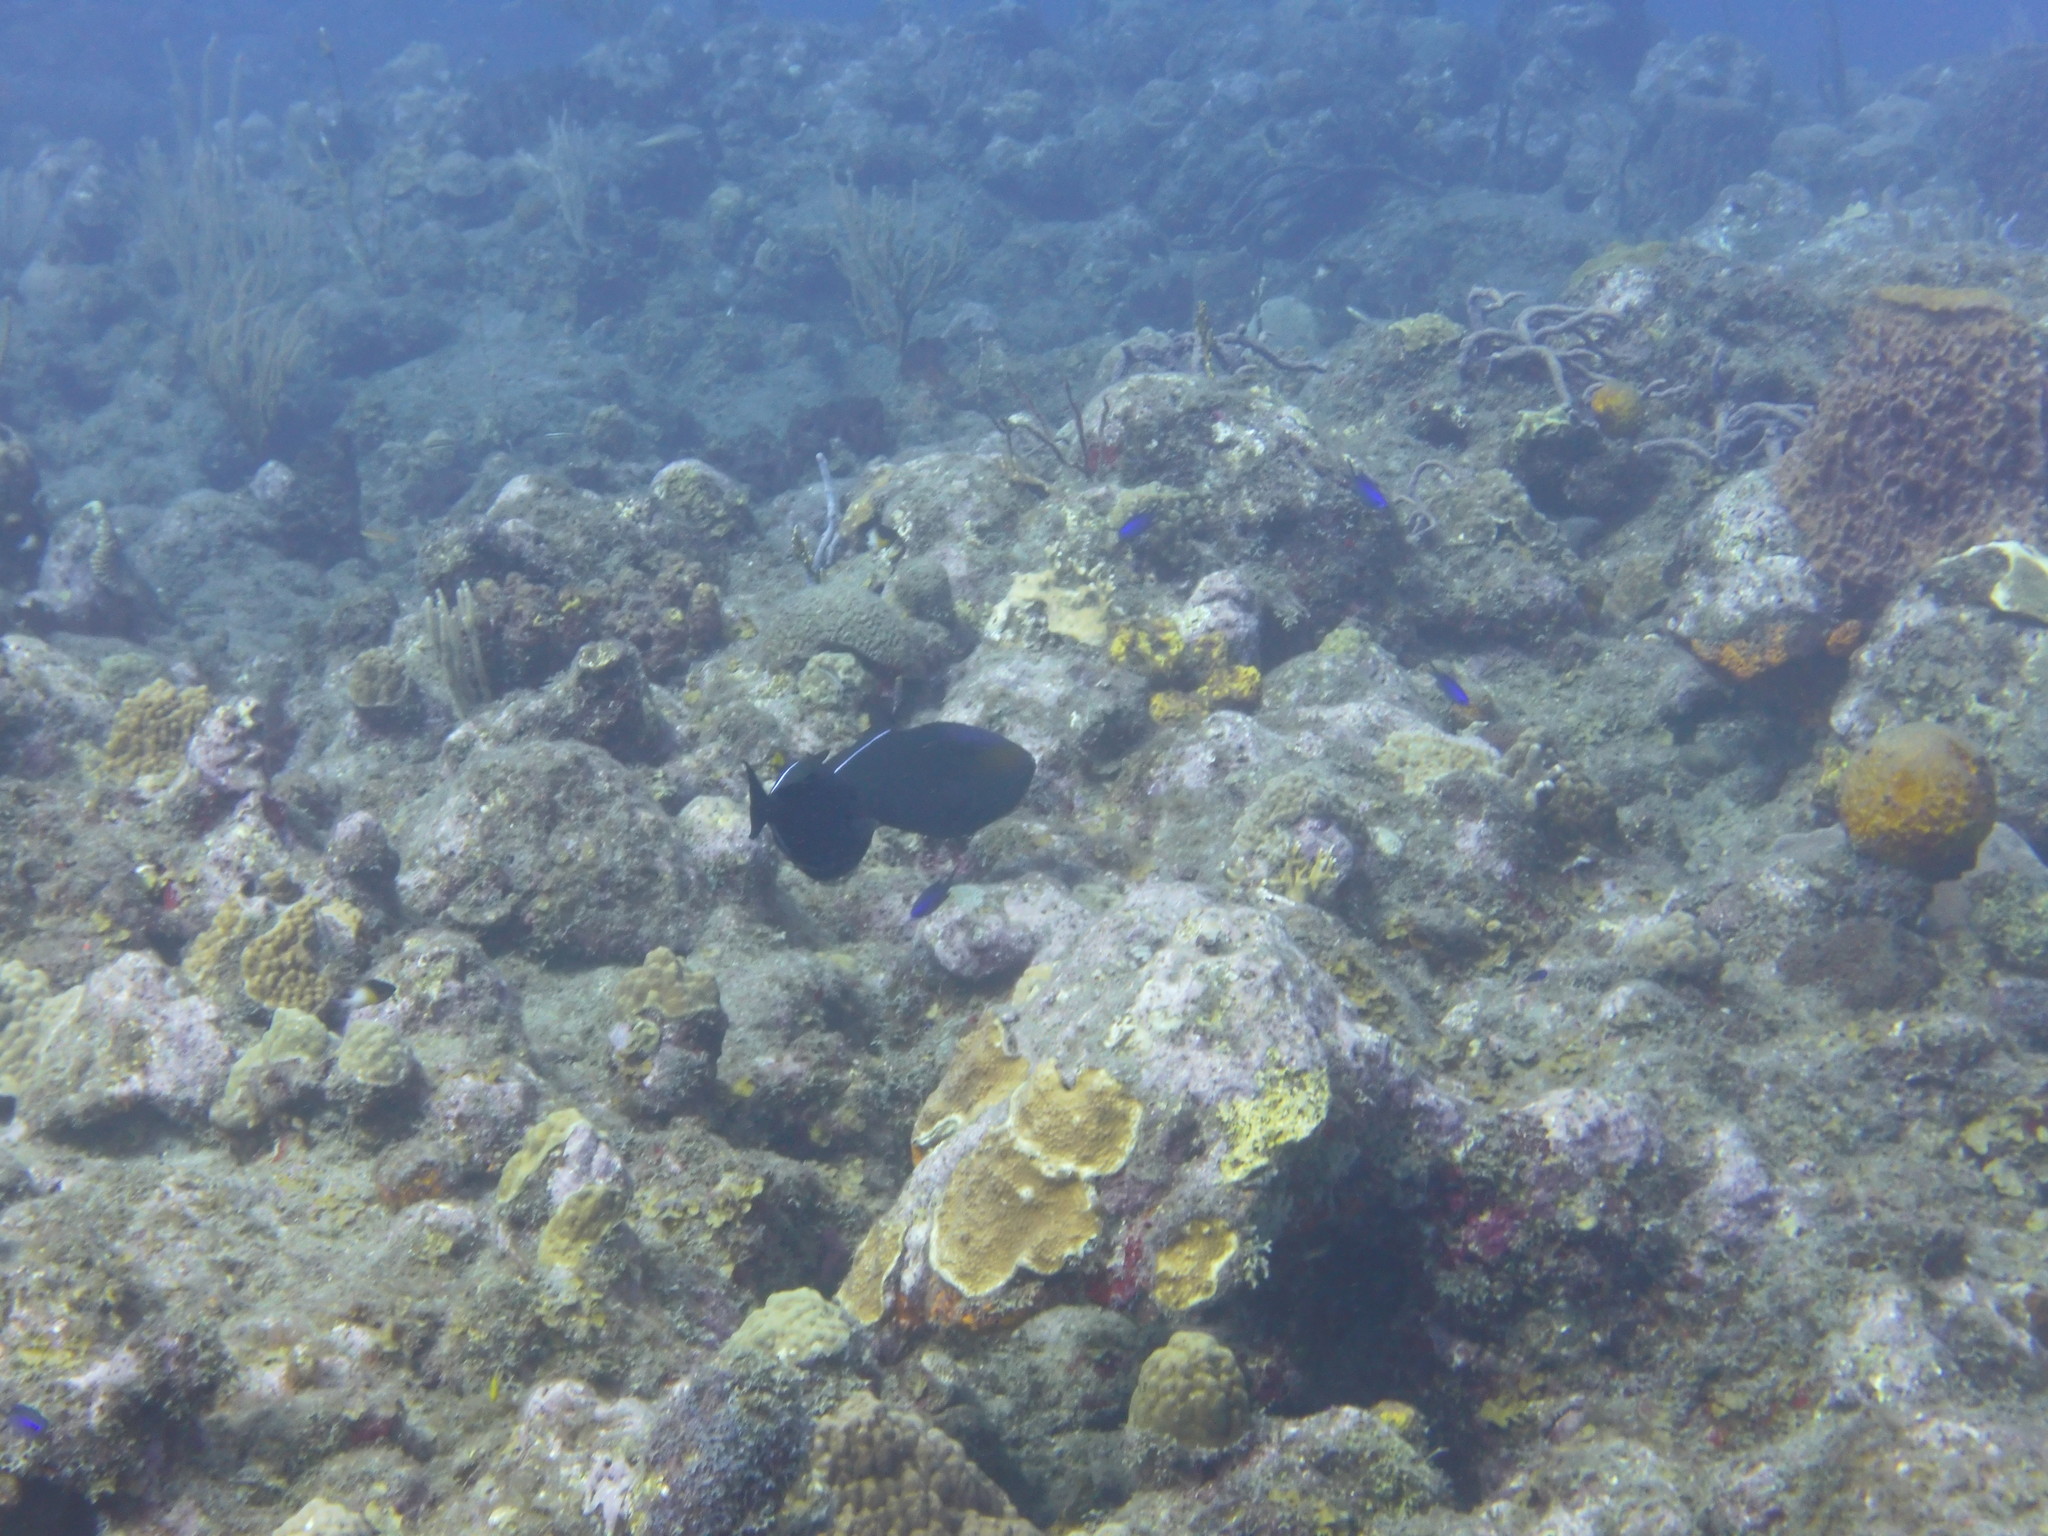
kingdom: Animalia
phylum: Chordata
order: Tetraodontiformes
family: Balistidae
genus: Melichthys
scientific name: Melichthys niger
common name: Black durgon
